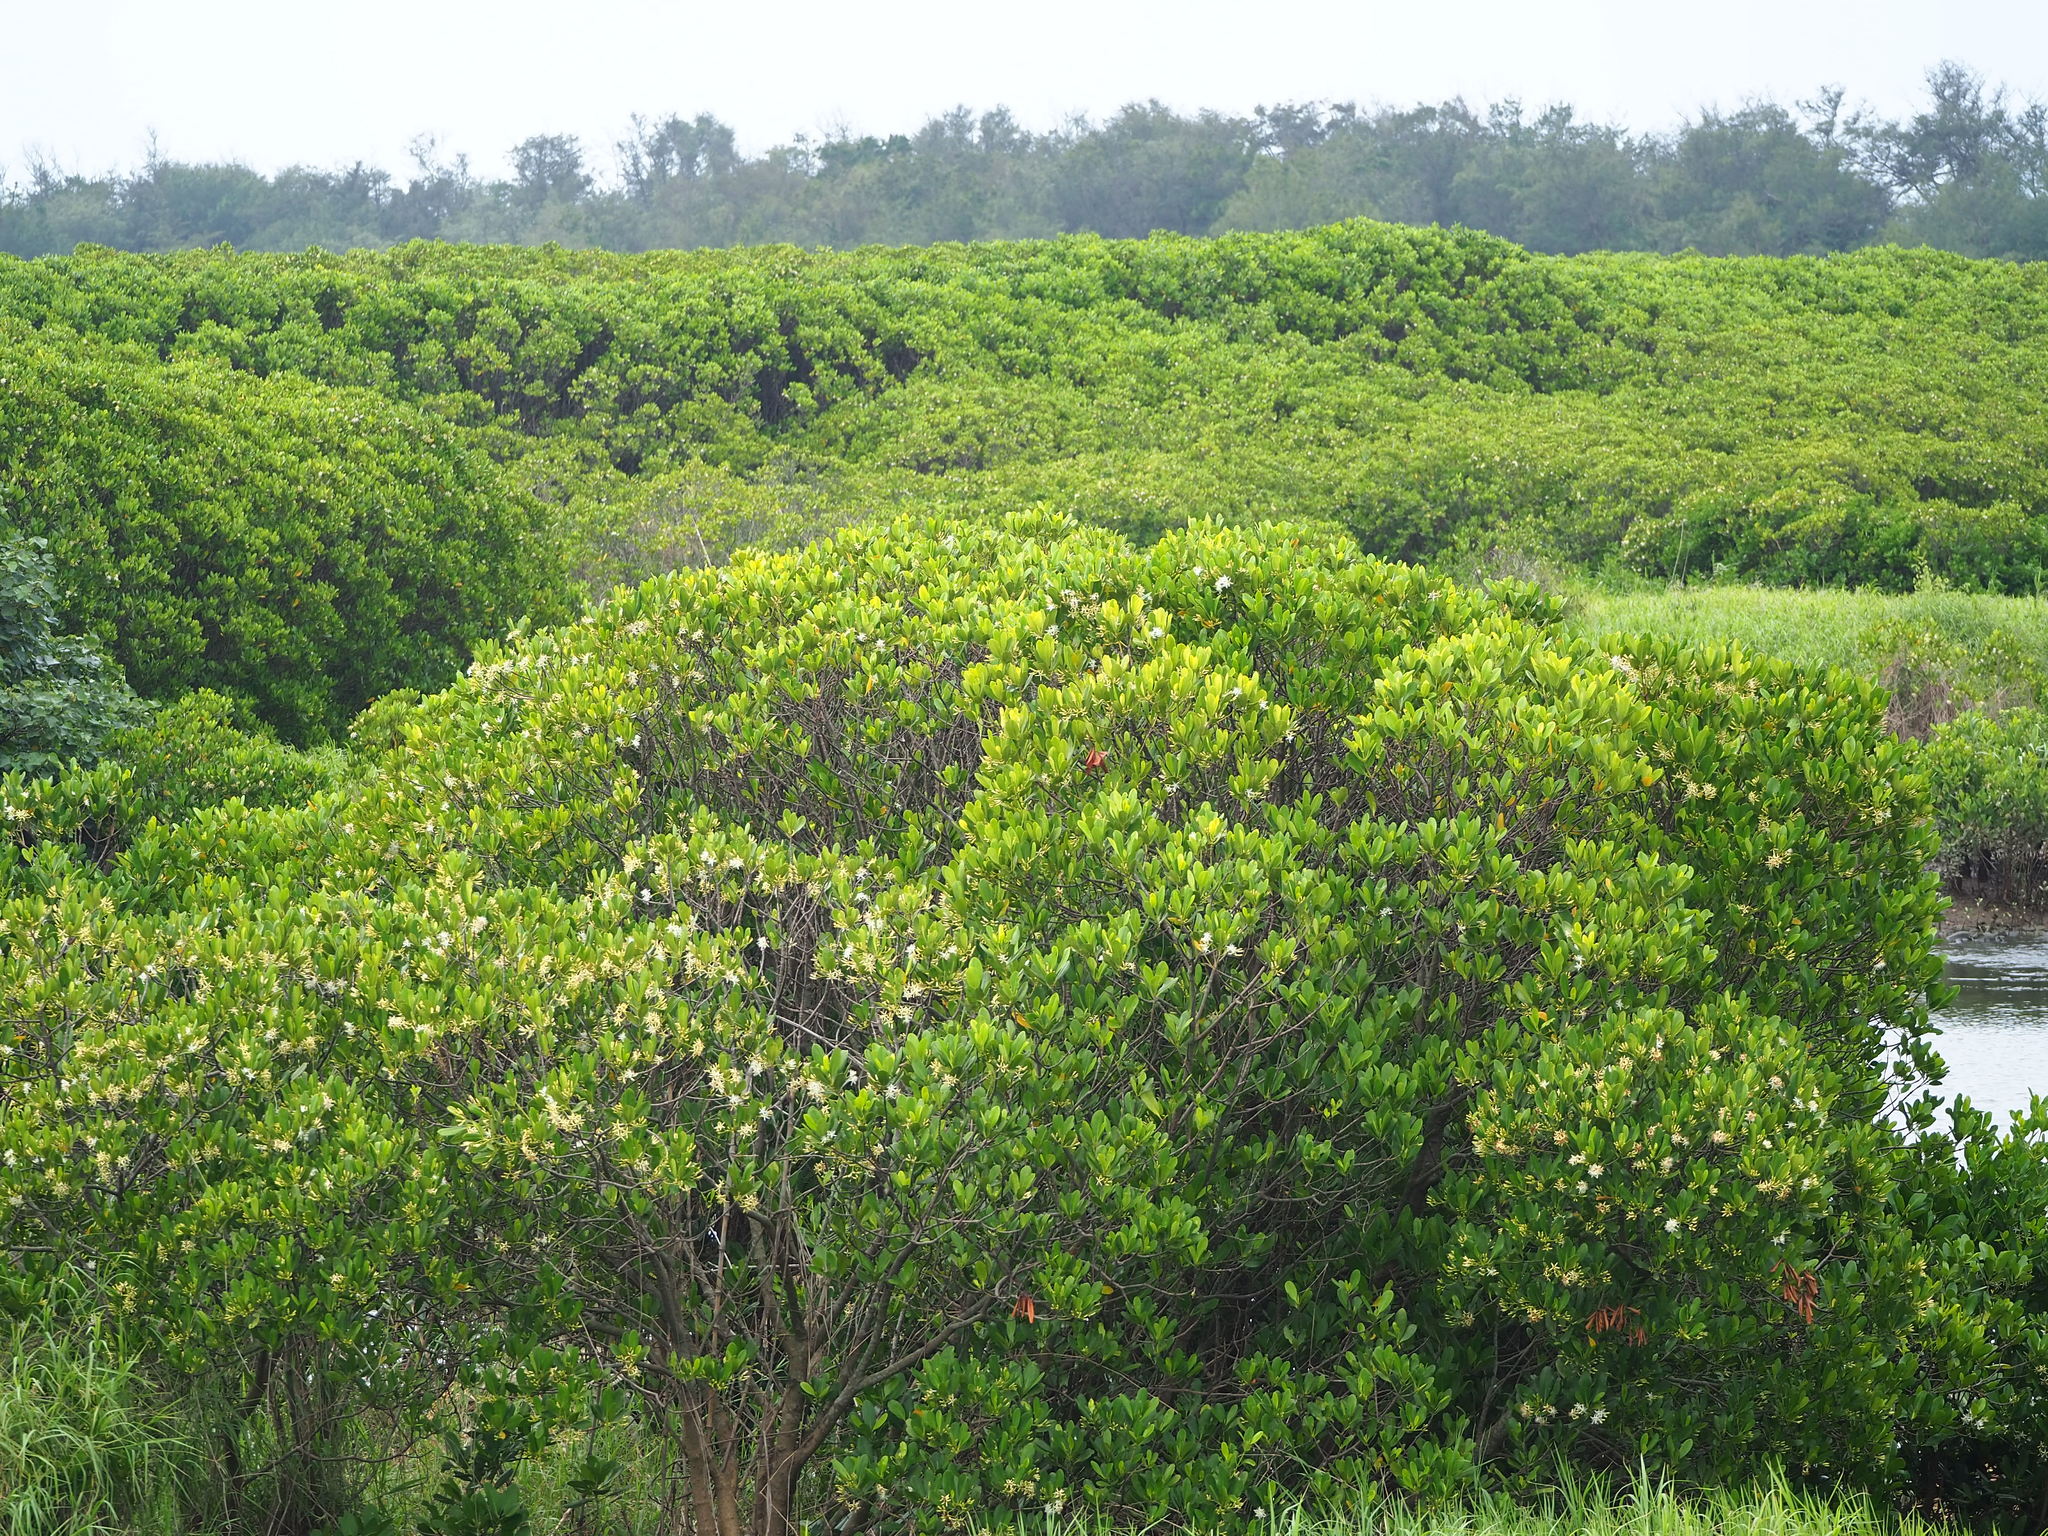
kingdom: Plantae
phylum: Tracheophyta
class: Magnoliopsida
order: Malpighiales
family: Rhizophoraceae
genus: Kandelia
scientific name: Kandelia obovata
